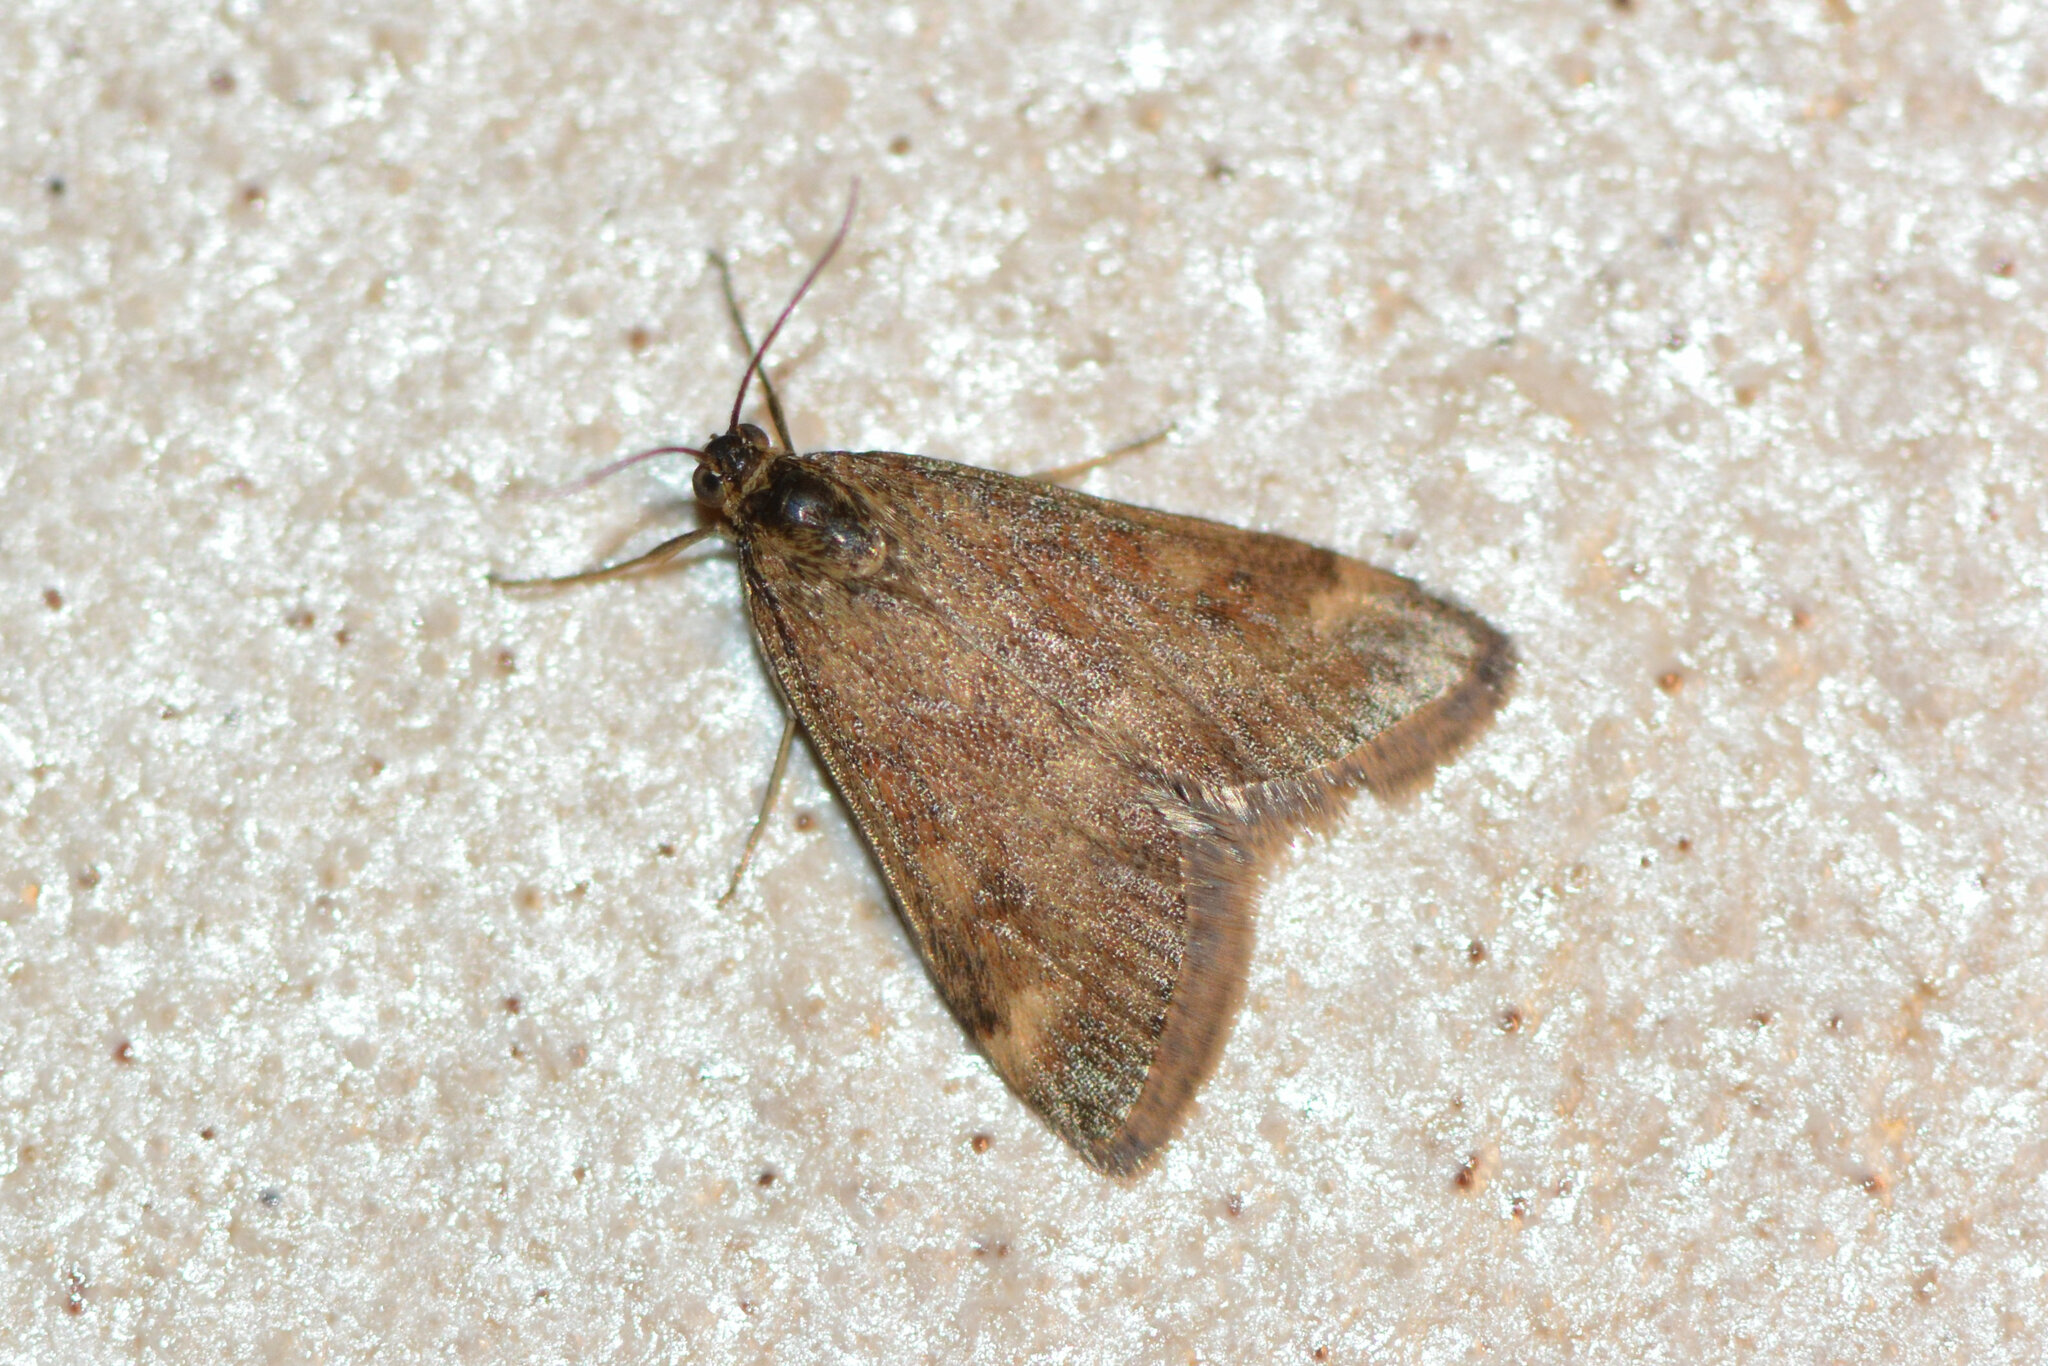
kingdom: Animalia
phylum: Arthropoda
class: Insecta
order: Lepidoptera
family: Crambidae
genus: Pyrausta
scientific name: Pyrausta despicata
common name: Straw-barred pearl
